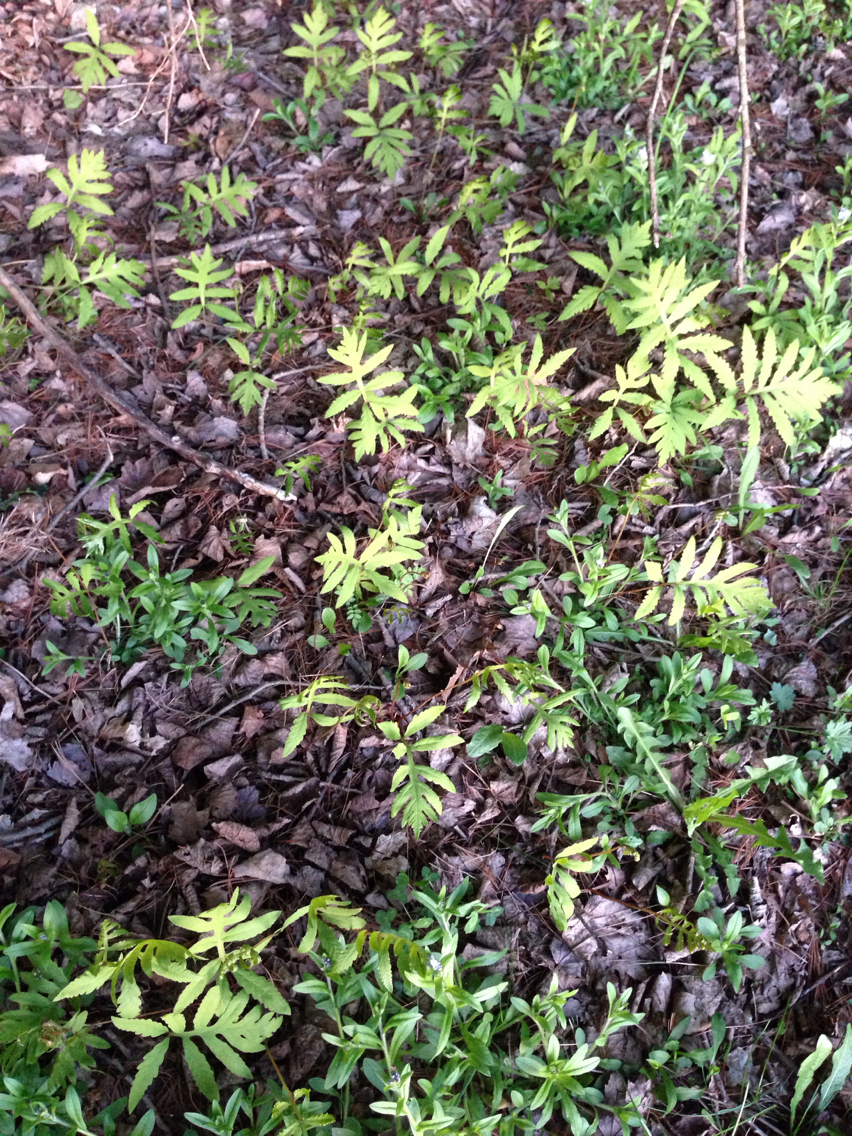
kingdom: Plantae
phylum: Tracheophyta
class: Polypodiopsida
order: Polypodiales
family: Onocleaceae
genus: Onoclea
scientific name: Onoclea sensibilis
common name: Sensitive fern
